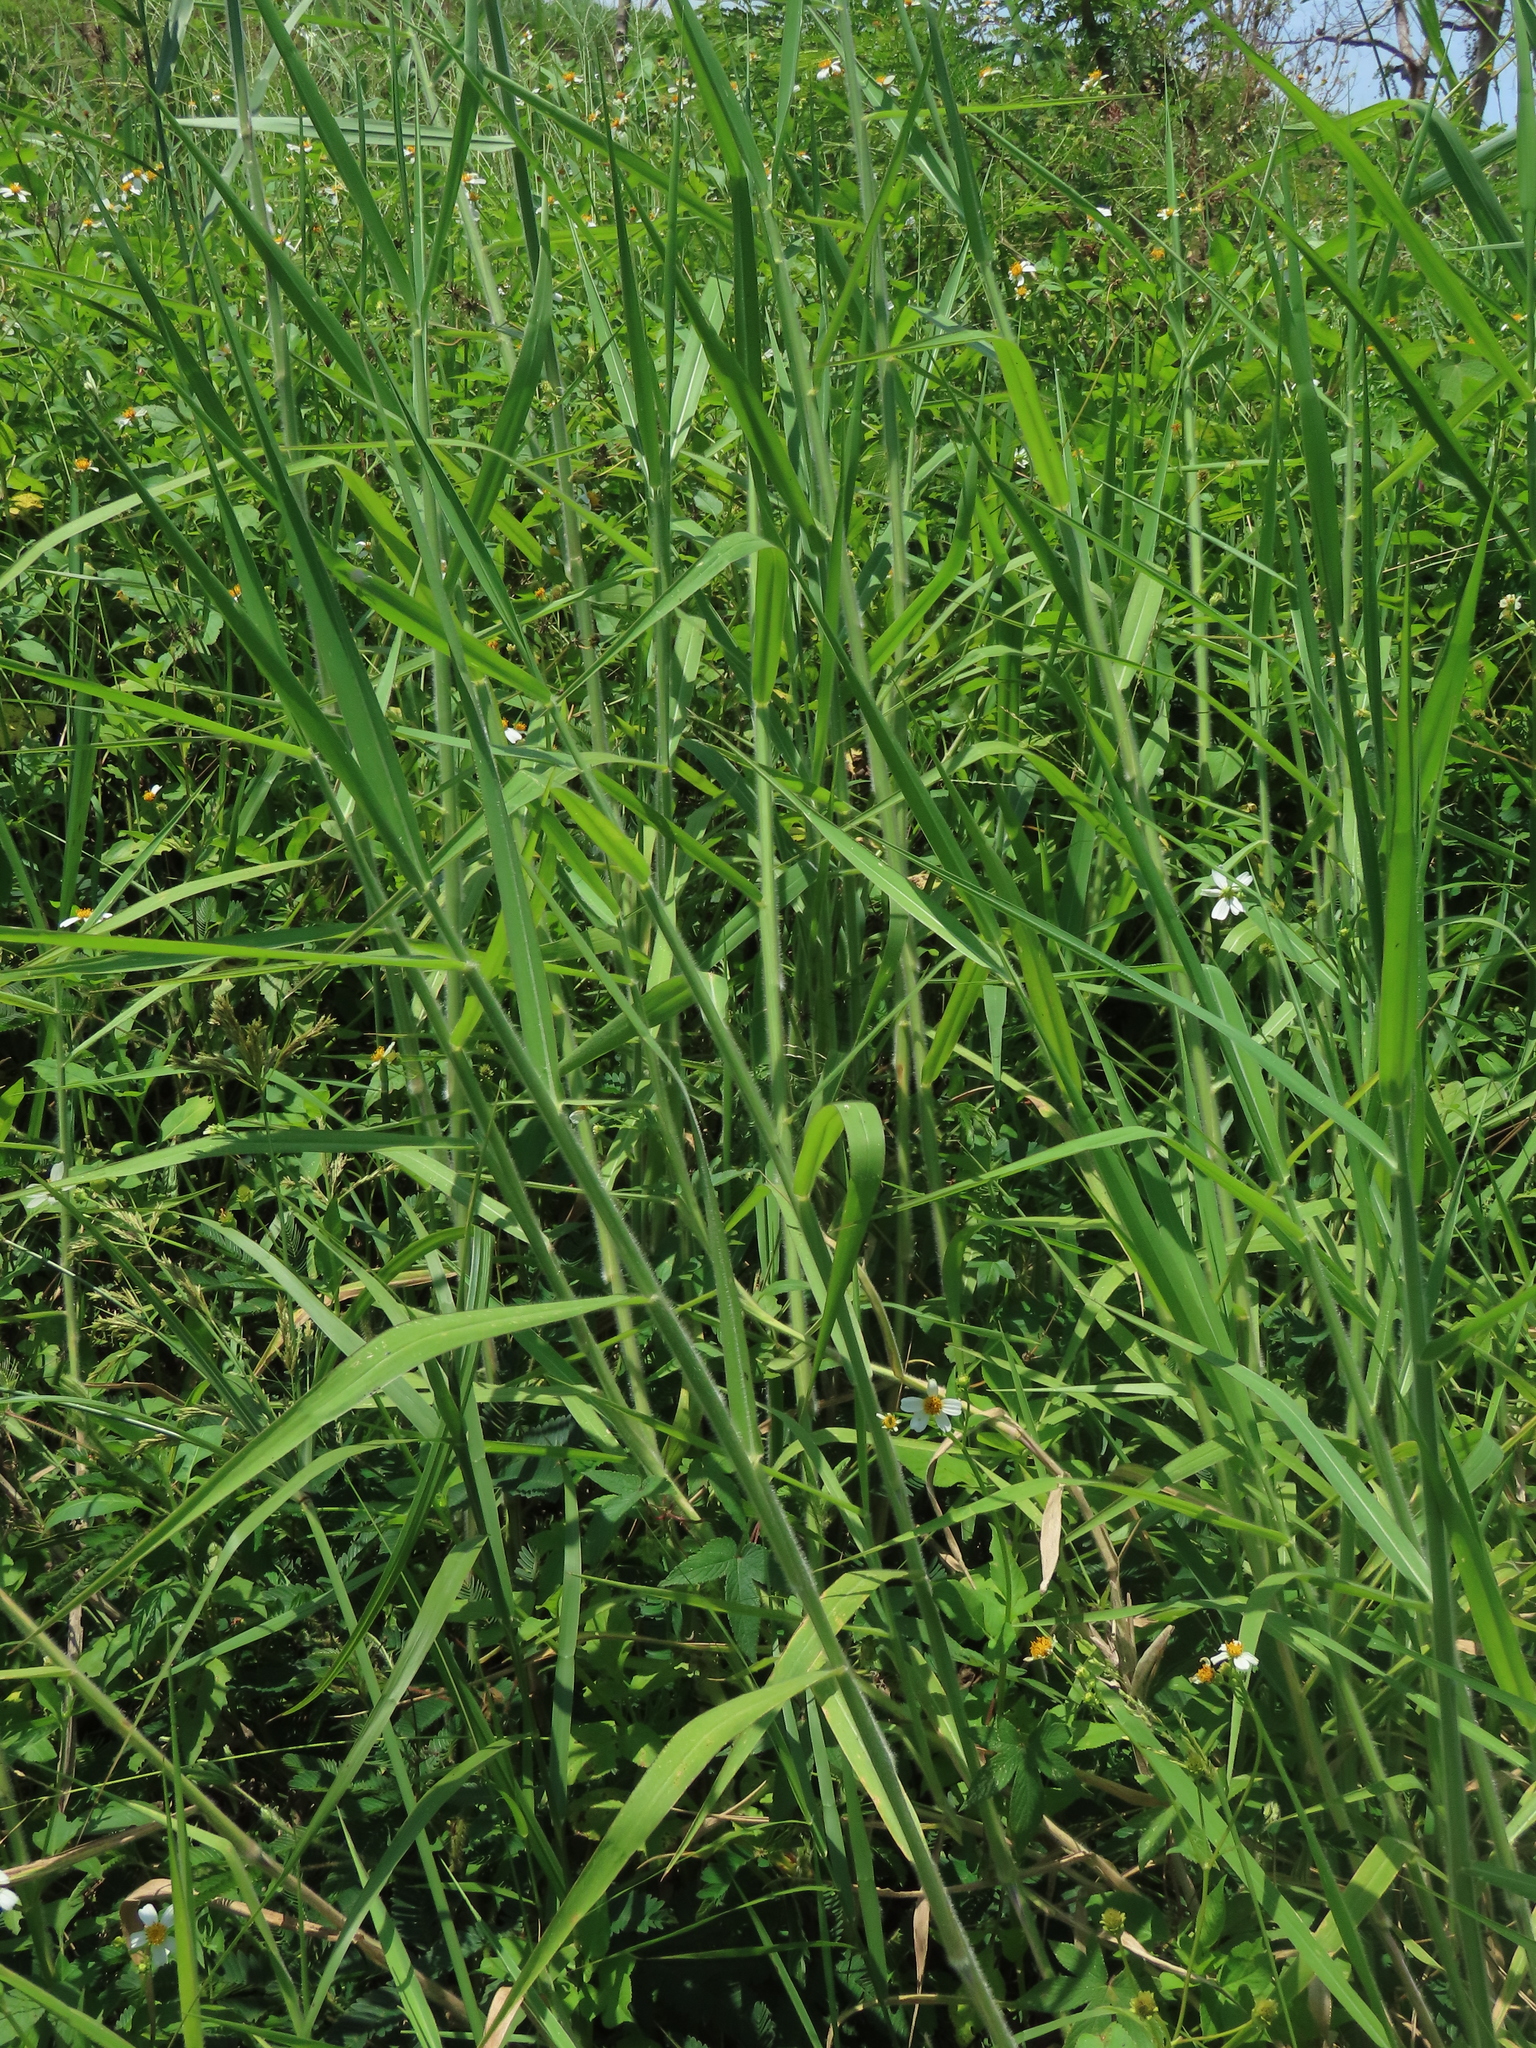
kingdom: Plantae
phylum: Tracheophyta
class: Liliopsida
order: Poales
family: Poaceae
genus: Urochloa
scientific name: Urochloa mutica
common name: Para grass
